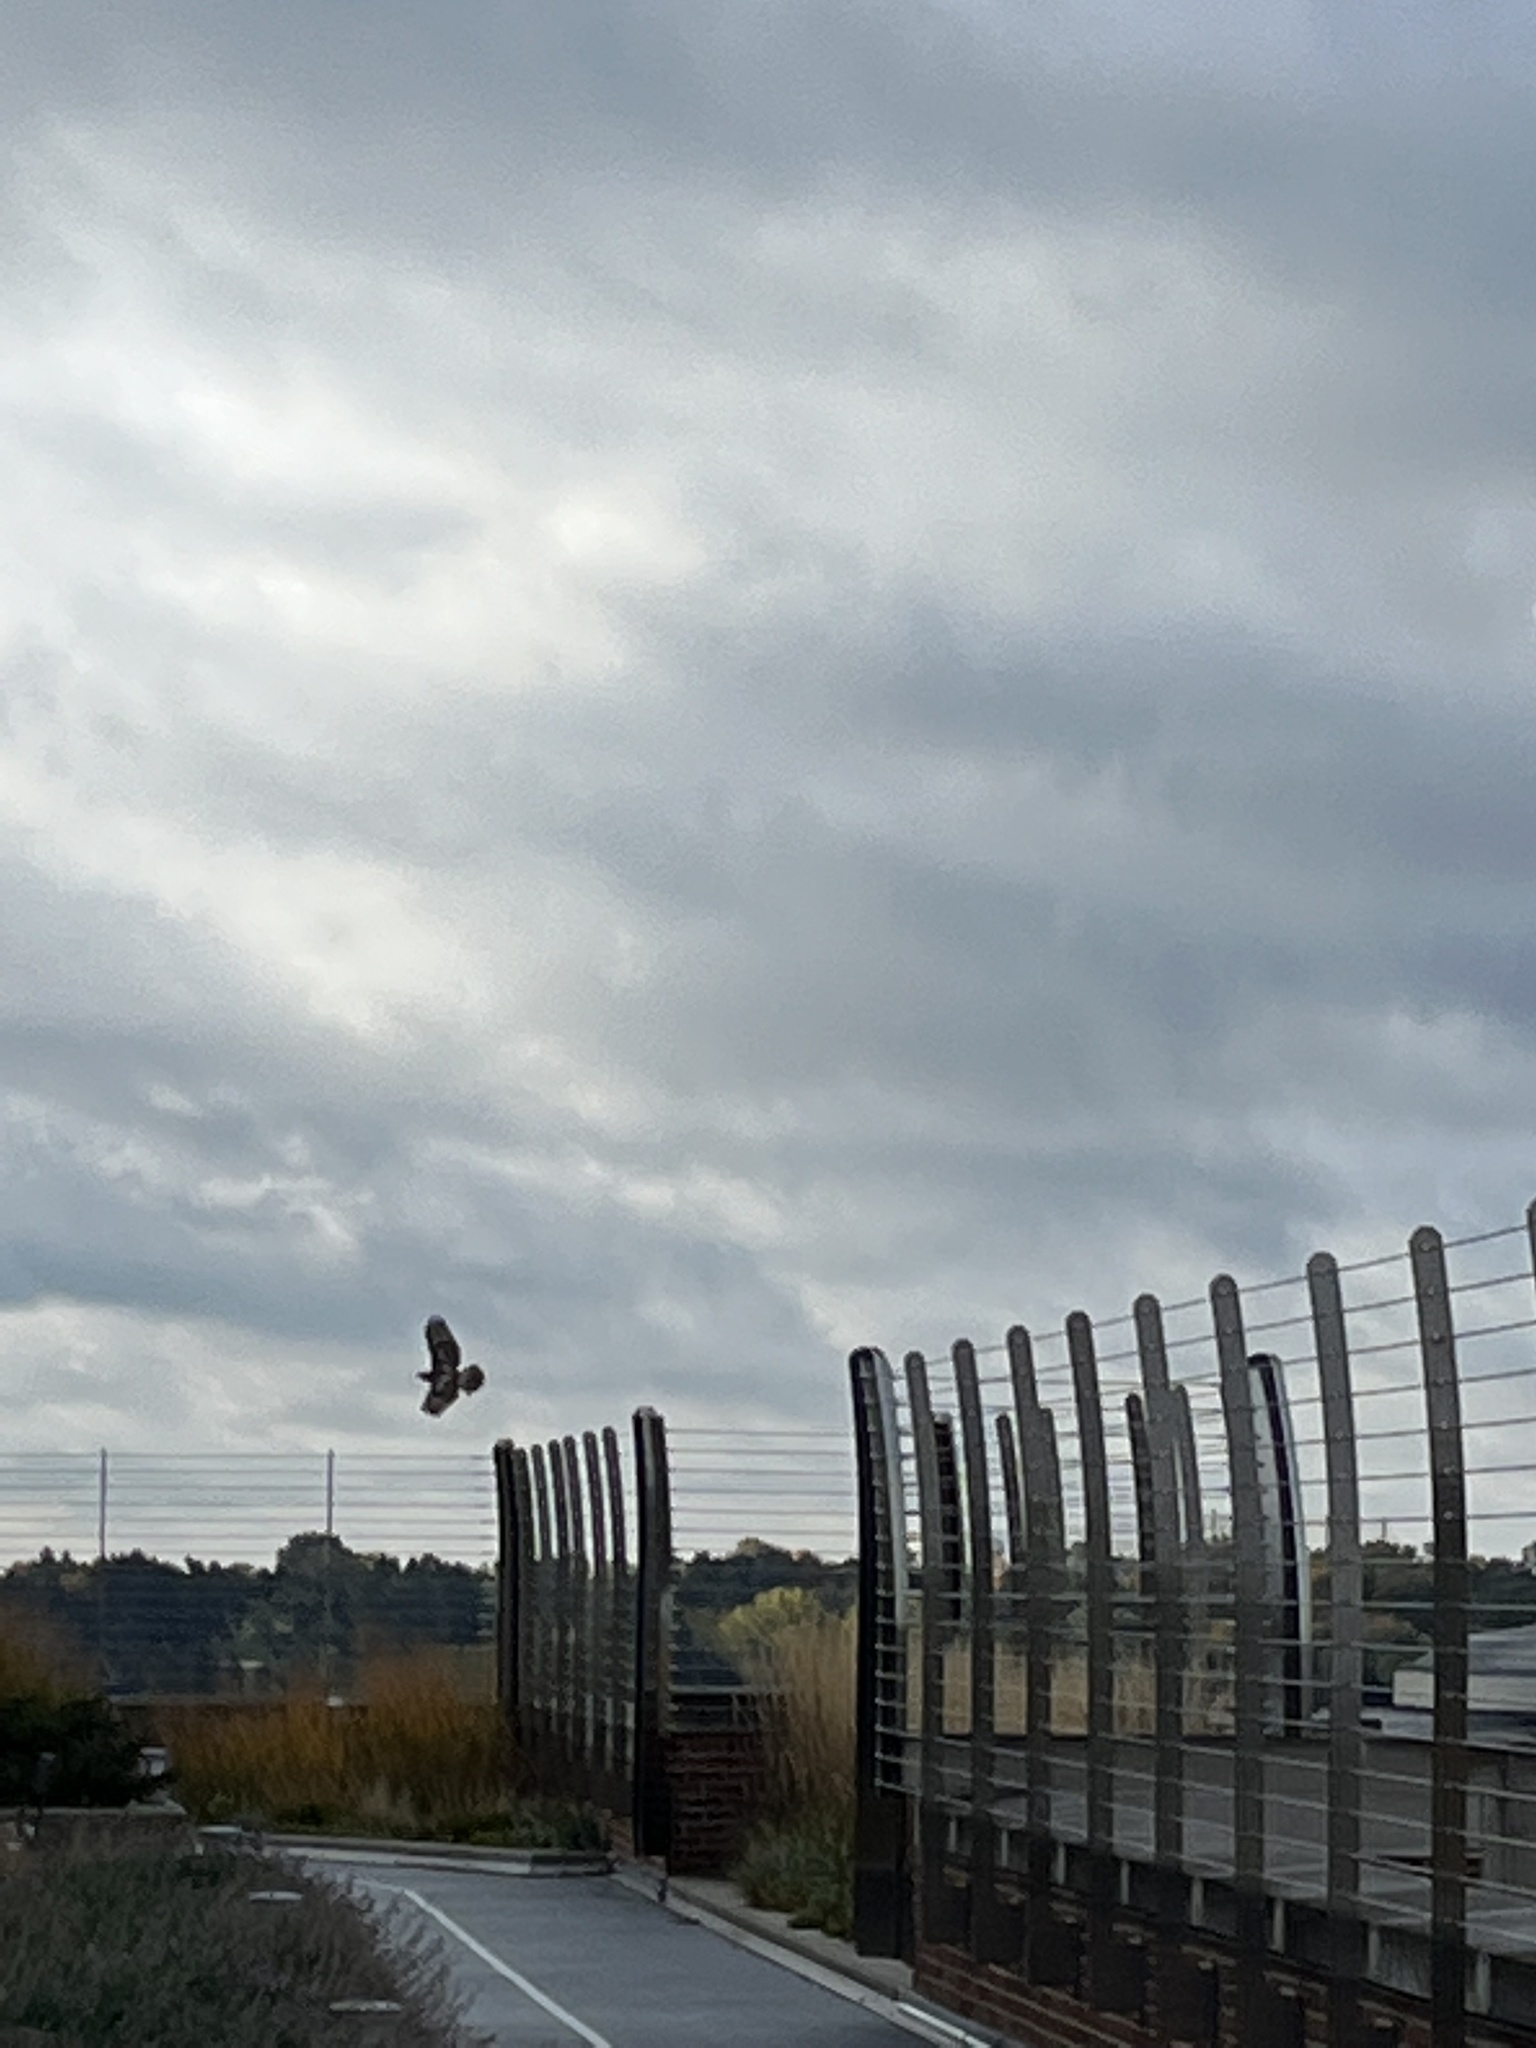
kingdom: Animalia
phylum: Chordata
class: Aves
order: Accipitriformes
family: Accipitridae
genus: Buteo
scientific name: Buteo jamaicensis
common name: Red-tailed hawk
